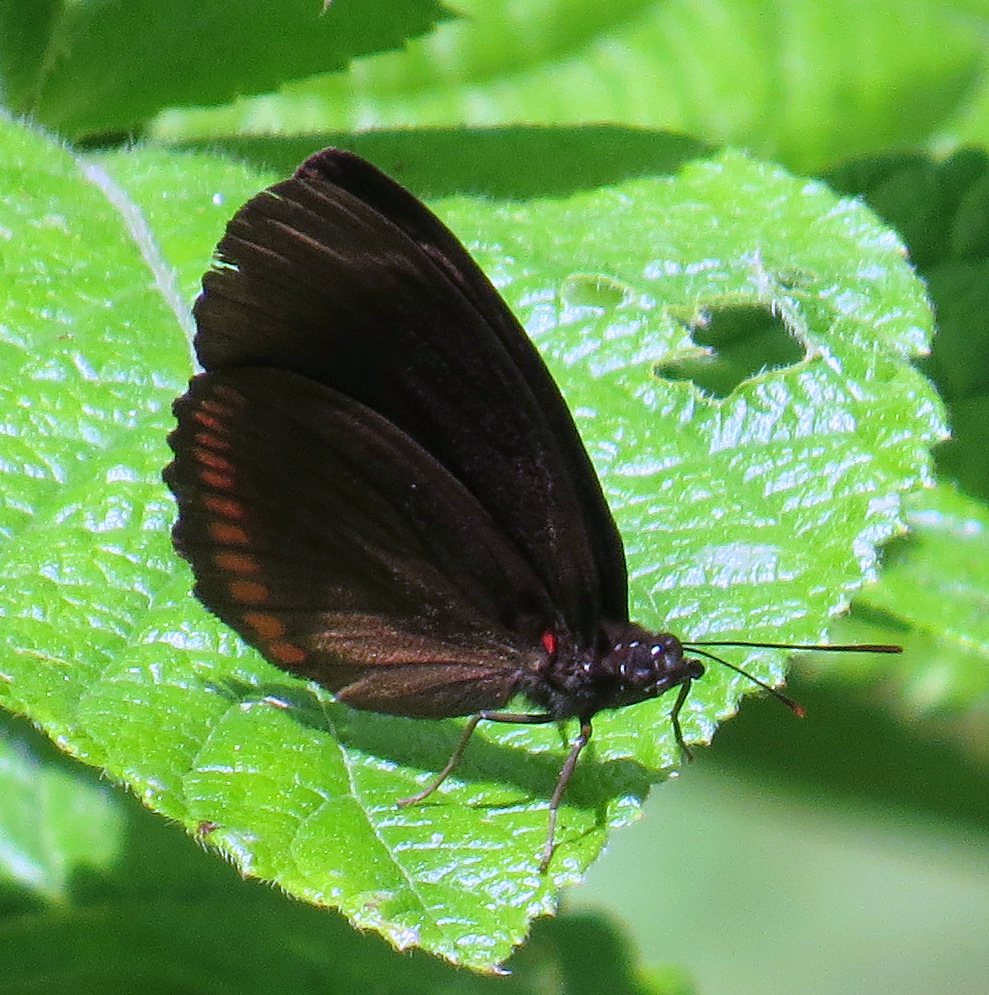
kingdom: Animalia
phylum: Arthropoda
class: Insecta
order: Lepidoptera
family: Sesiidae
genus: Sesia
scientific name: Sesia Biblis hyperia
